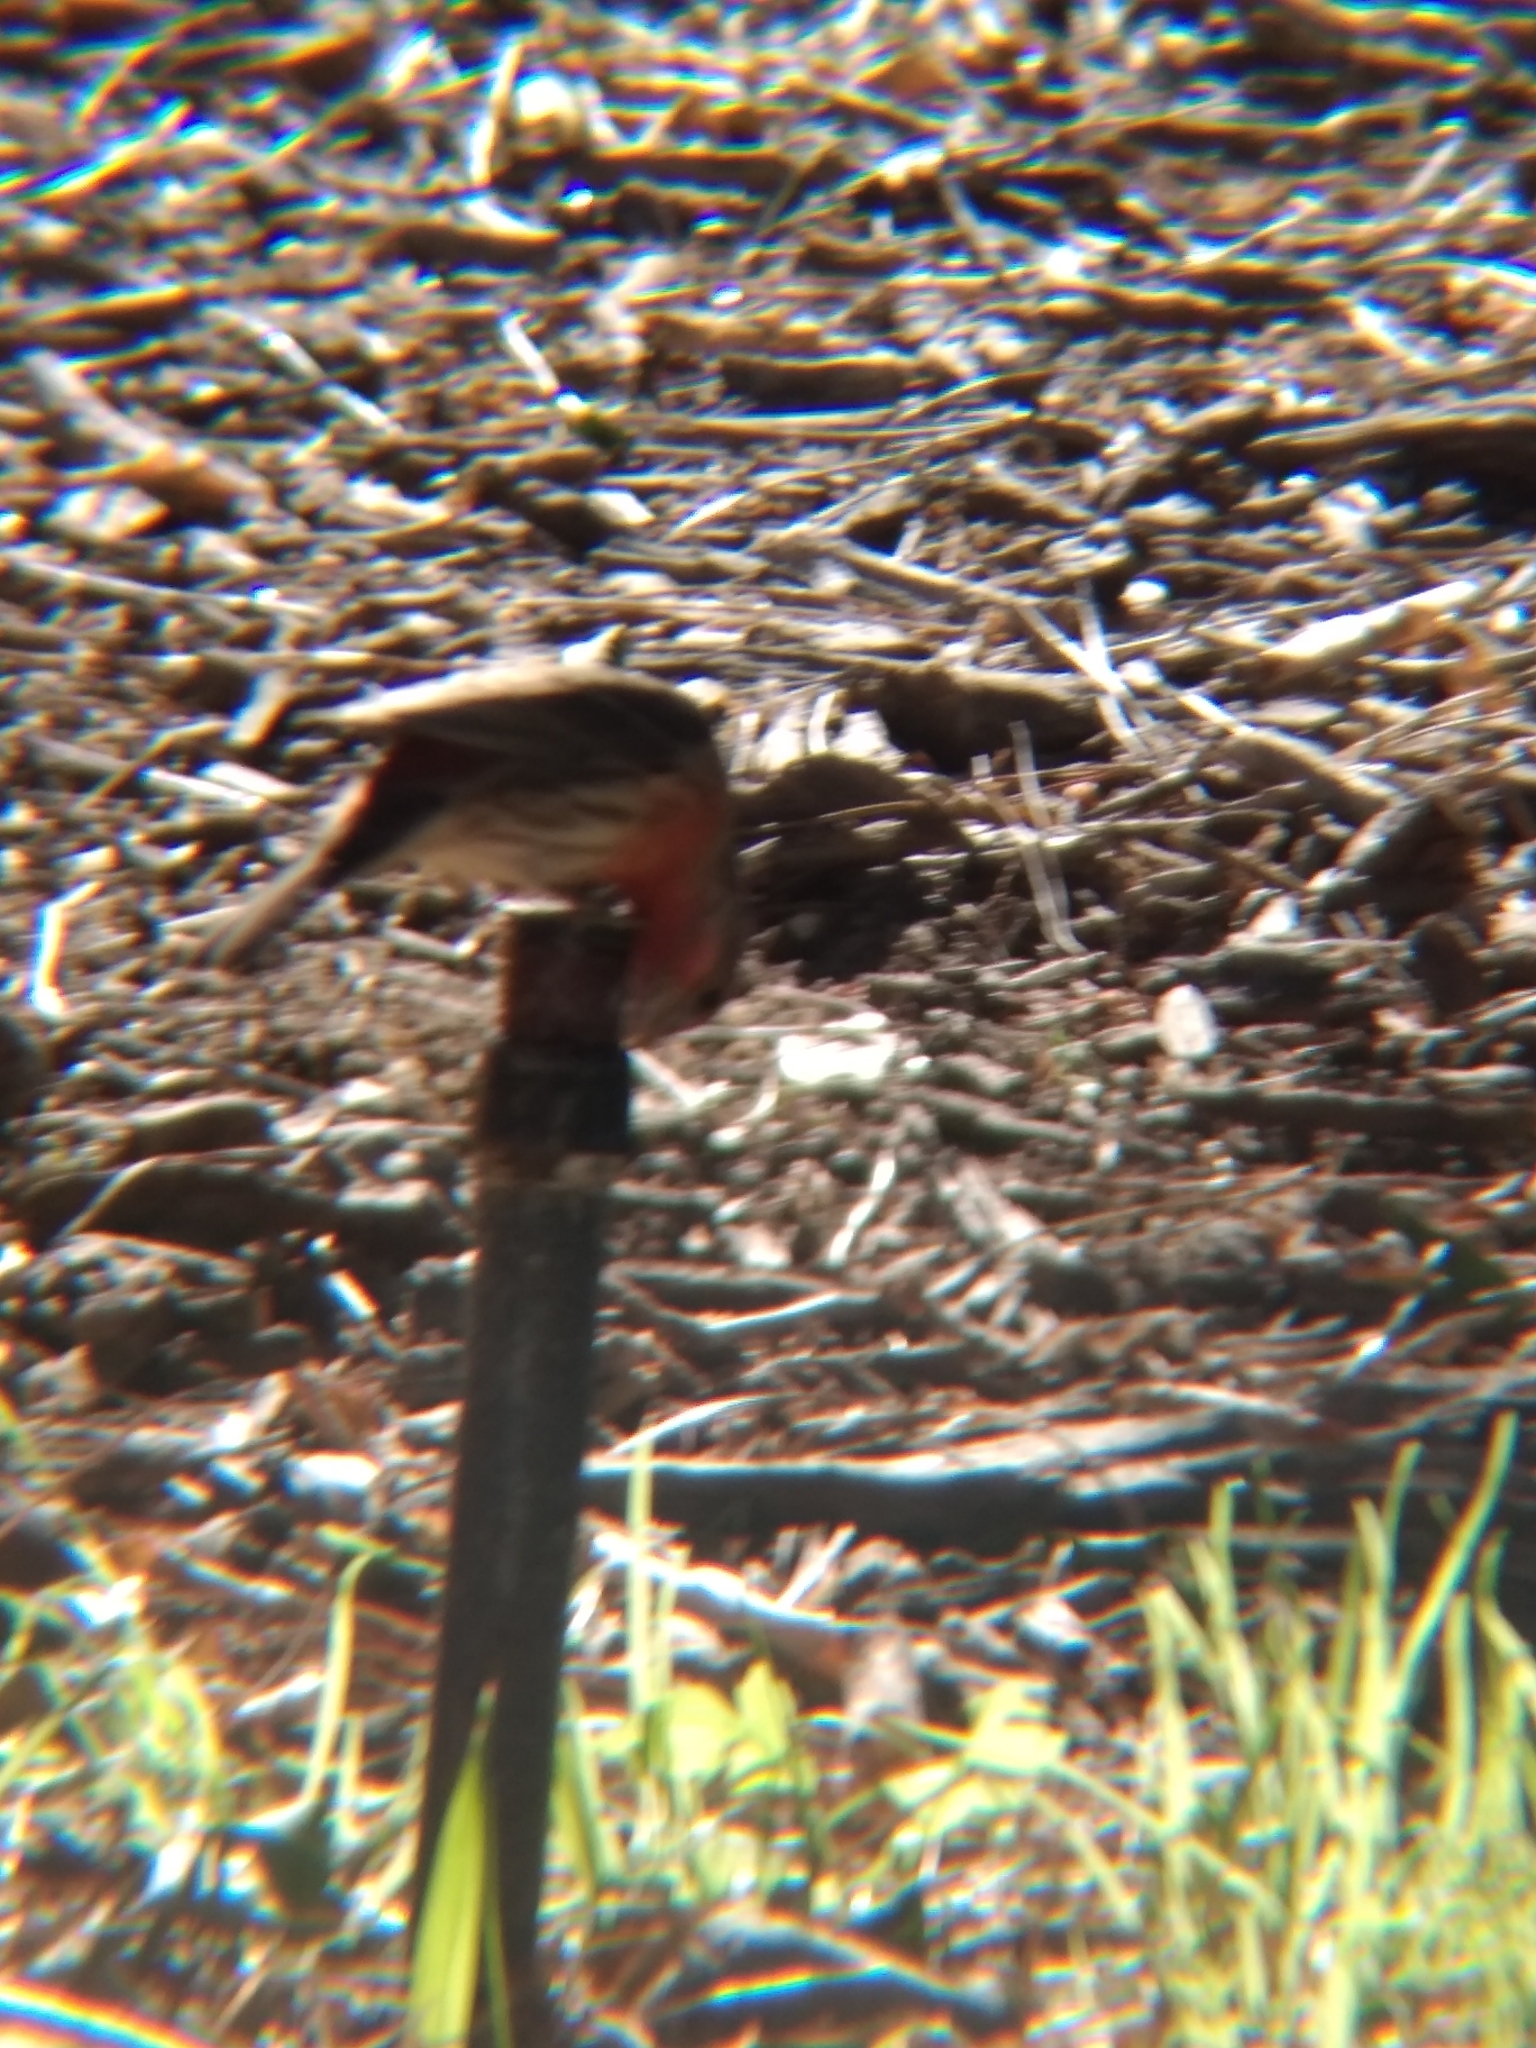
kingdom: Animalia
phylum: Chordata
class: Aves
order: Passeriformes
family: Fringillidae
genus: Haemorhous
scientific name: Haemorhous mexicanus
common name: House finch
